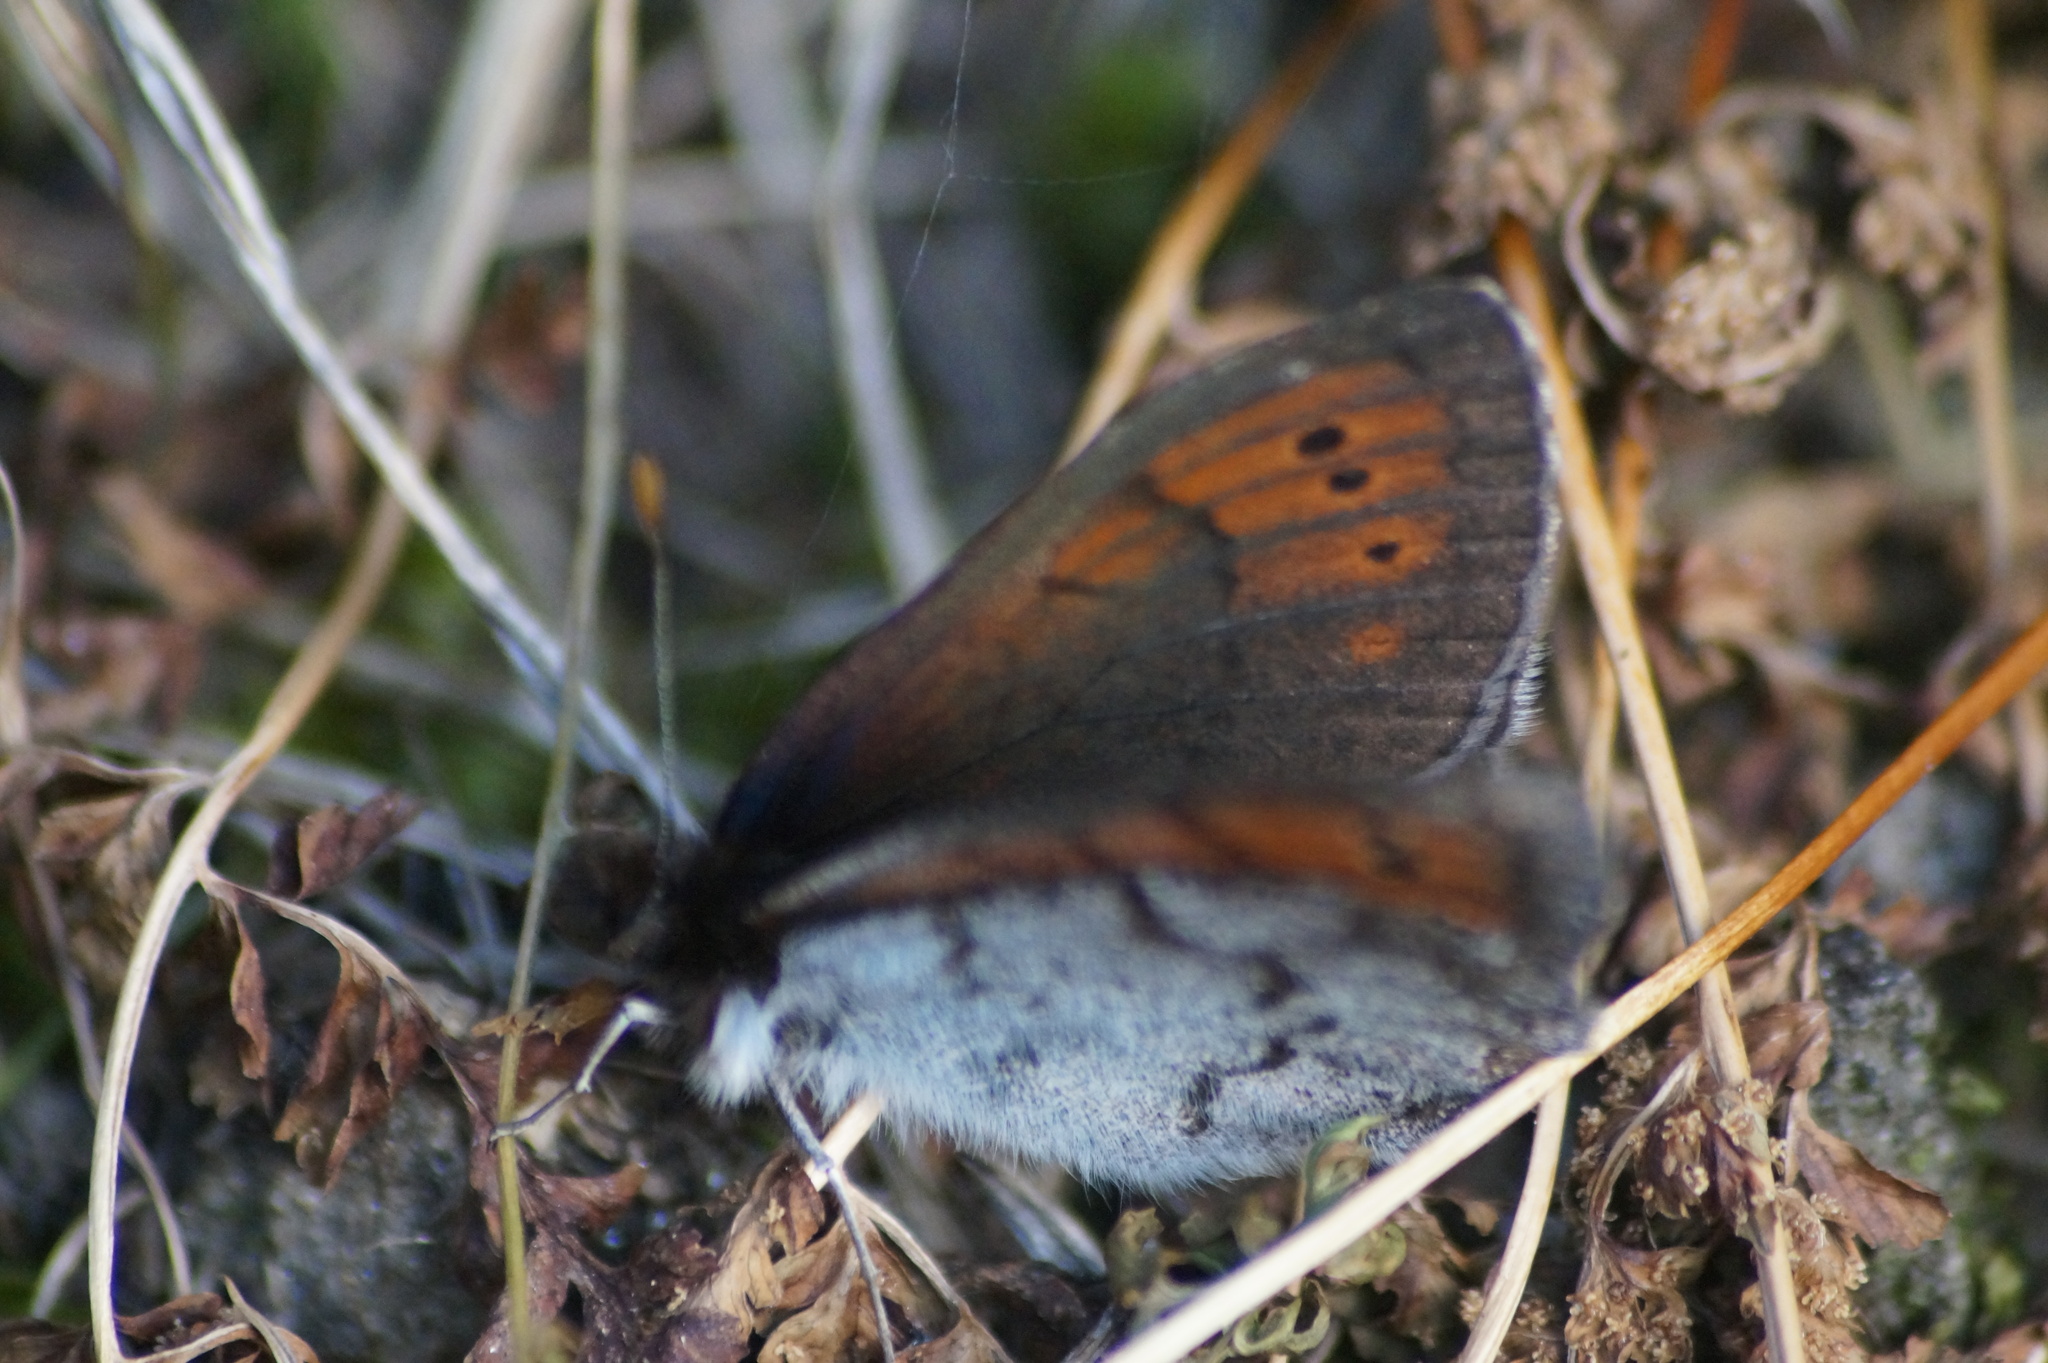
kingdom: Animalia
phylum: Arthropoda
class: Insecta
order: Lepidoptera
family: Nymphalidae
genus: Erebia
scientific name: Erebia pandrose
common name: Dewy ringlet
